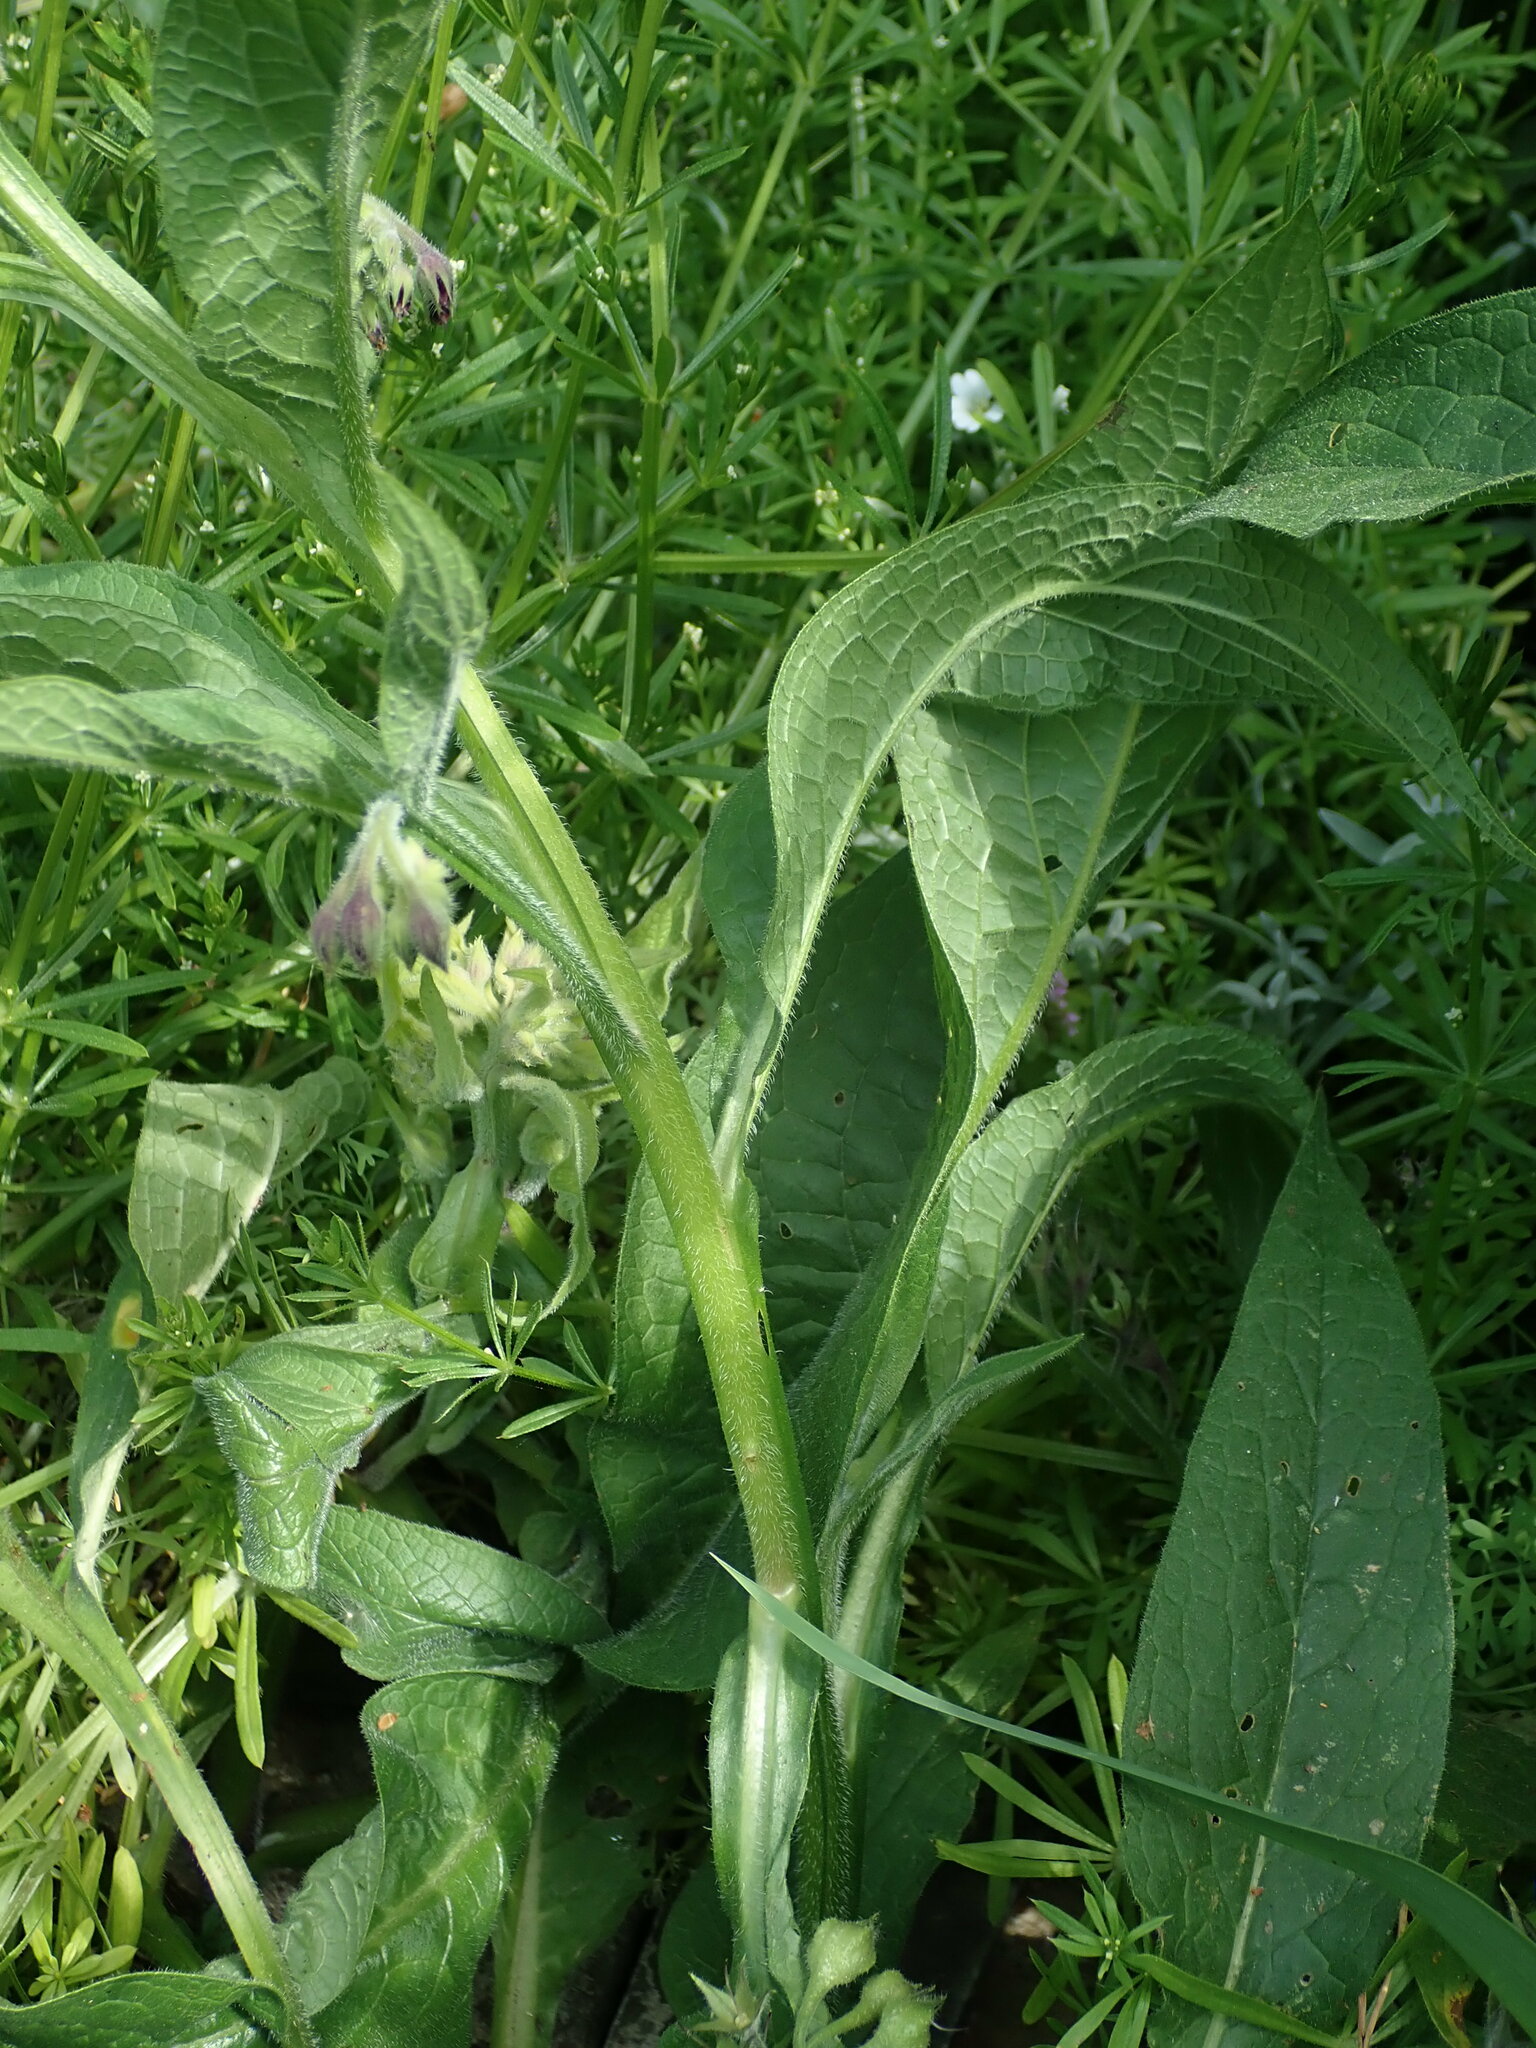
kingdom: Plantae
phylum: Tracheophyta
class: Magnoliopsida
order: Boraginales
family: Boraginaceae
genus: Symphytum
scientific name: Symphytum officinale
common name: Common comfrey
